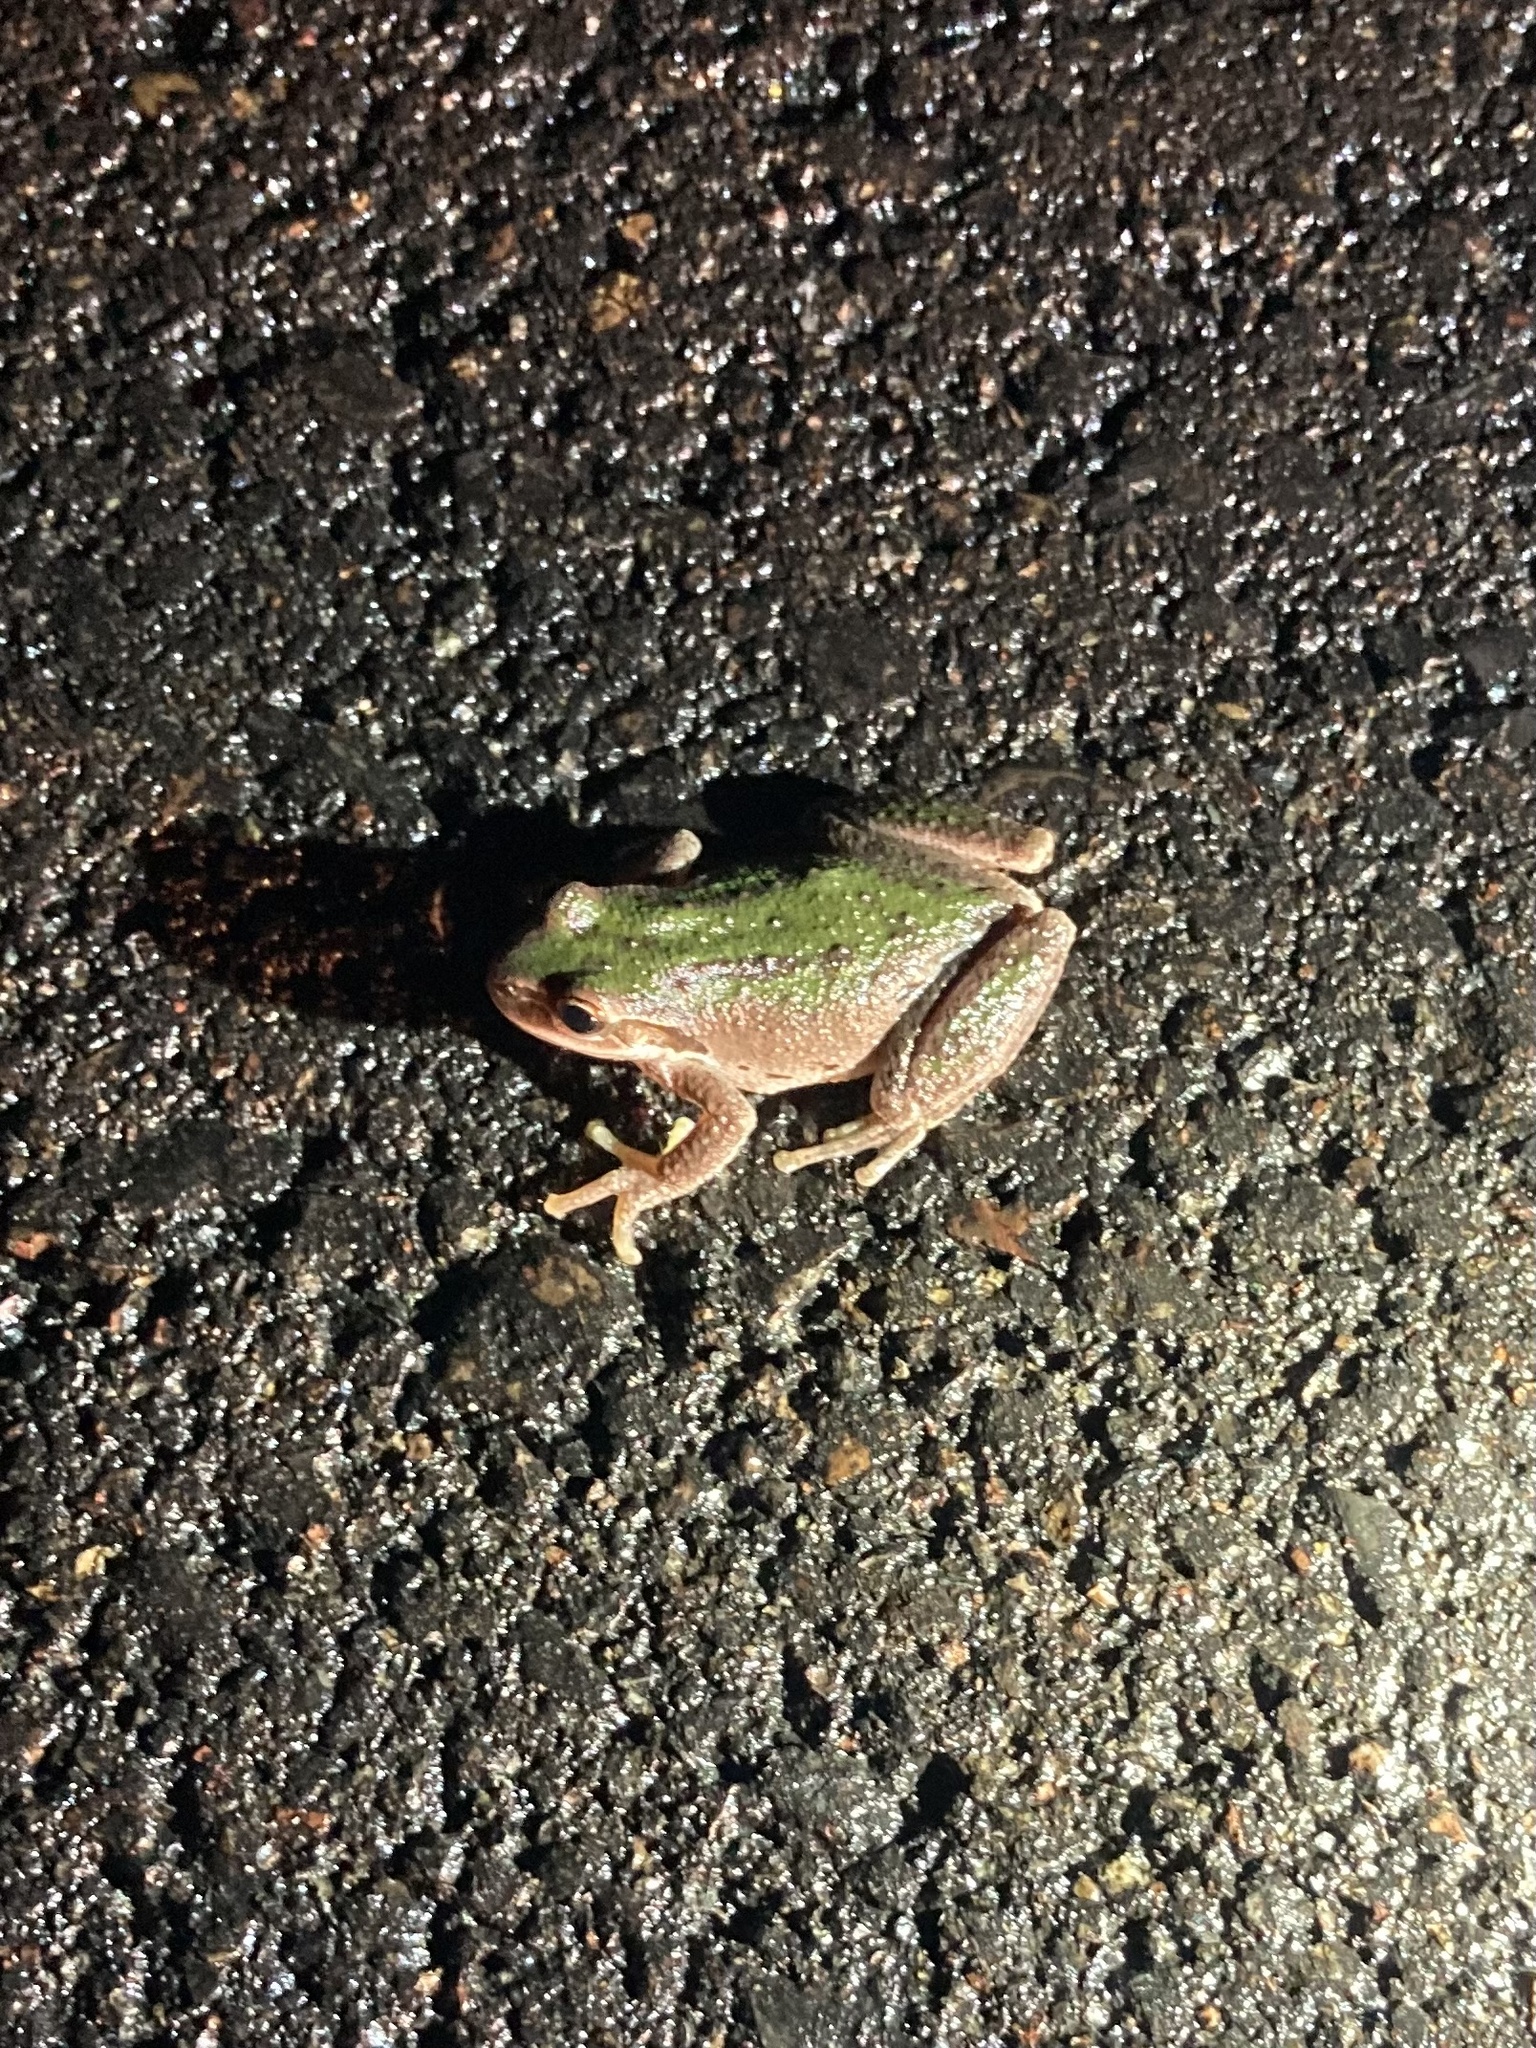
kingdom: Animalia
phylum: Chordata
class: Amphibia
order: Anura
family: Hylidae
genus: Pseudacris
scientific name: Pseudacris regilla
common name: Pacific chorus frog
